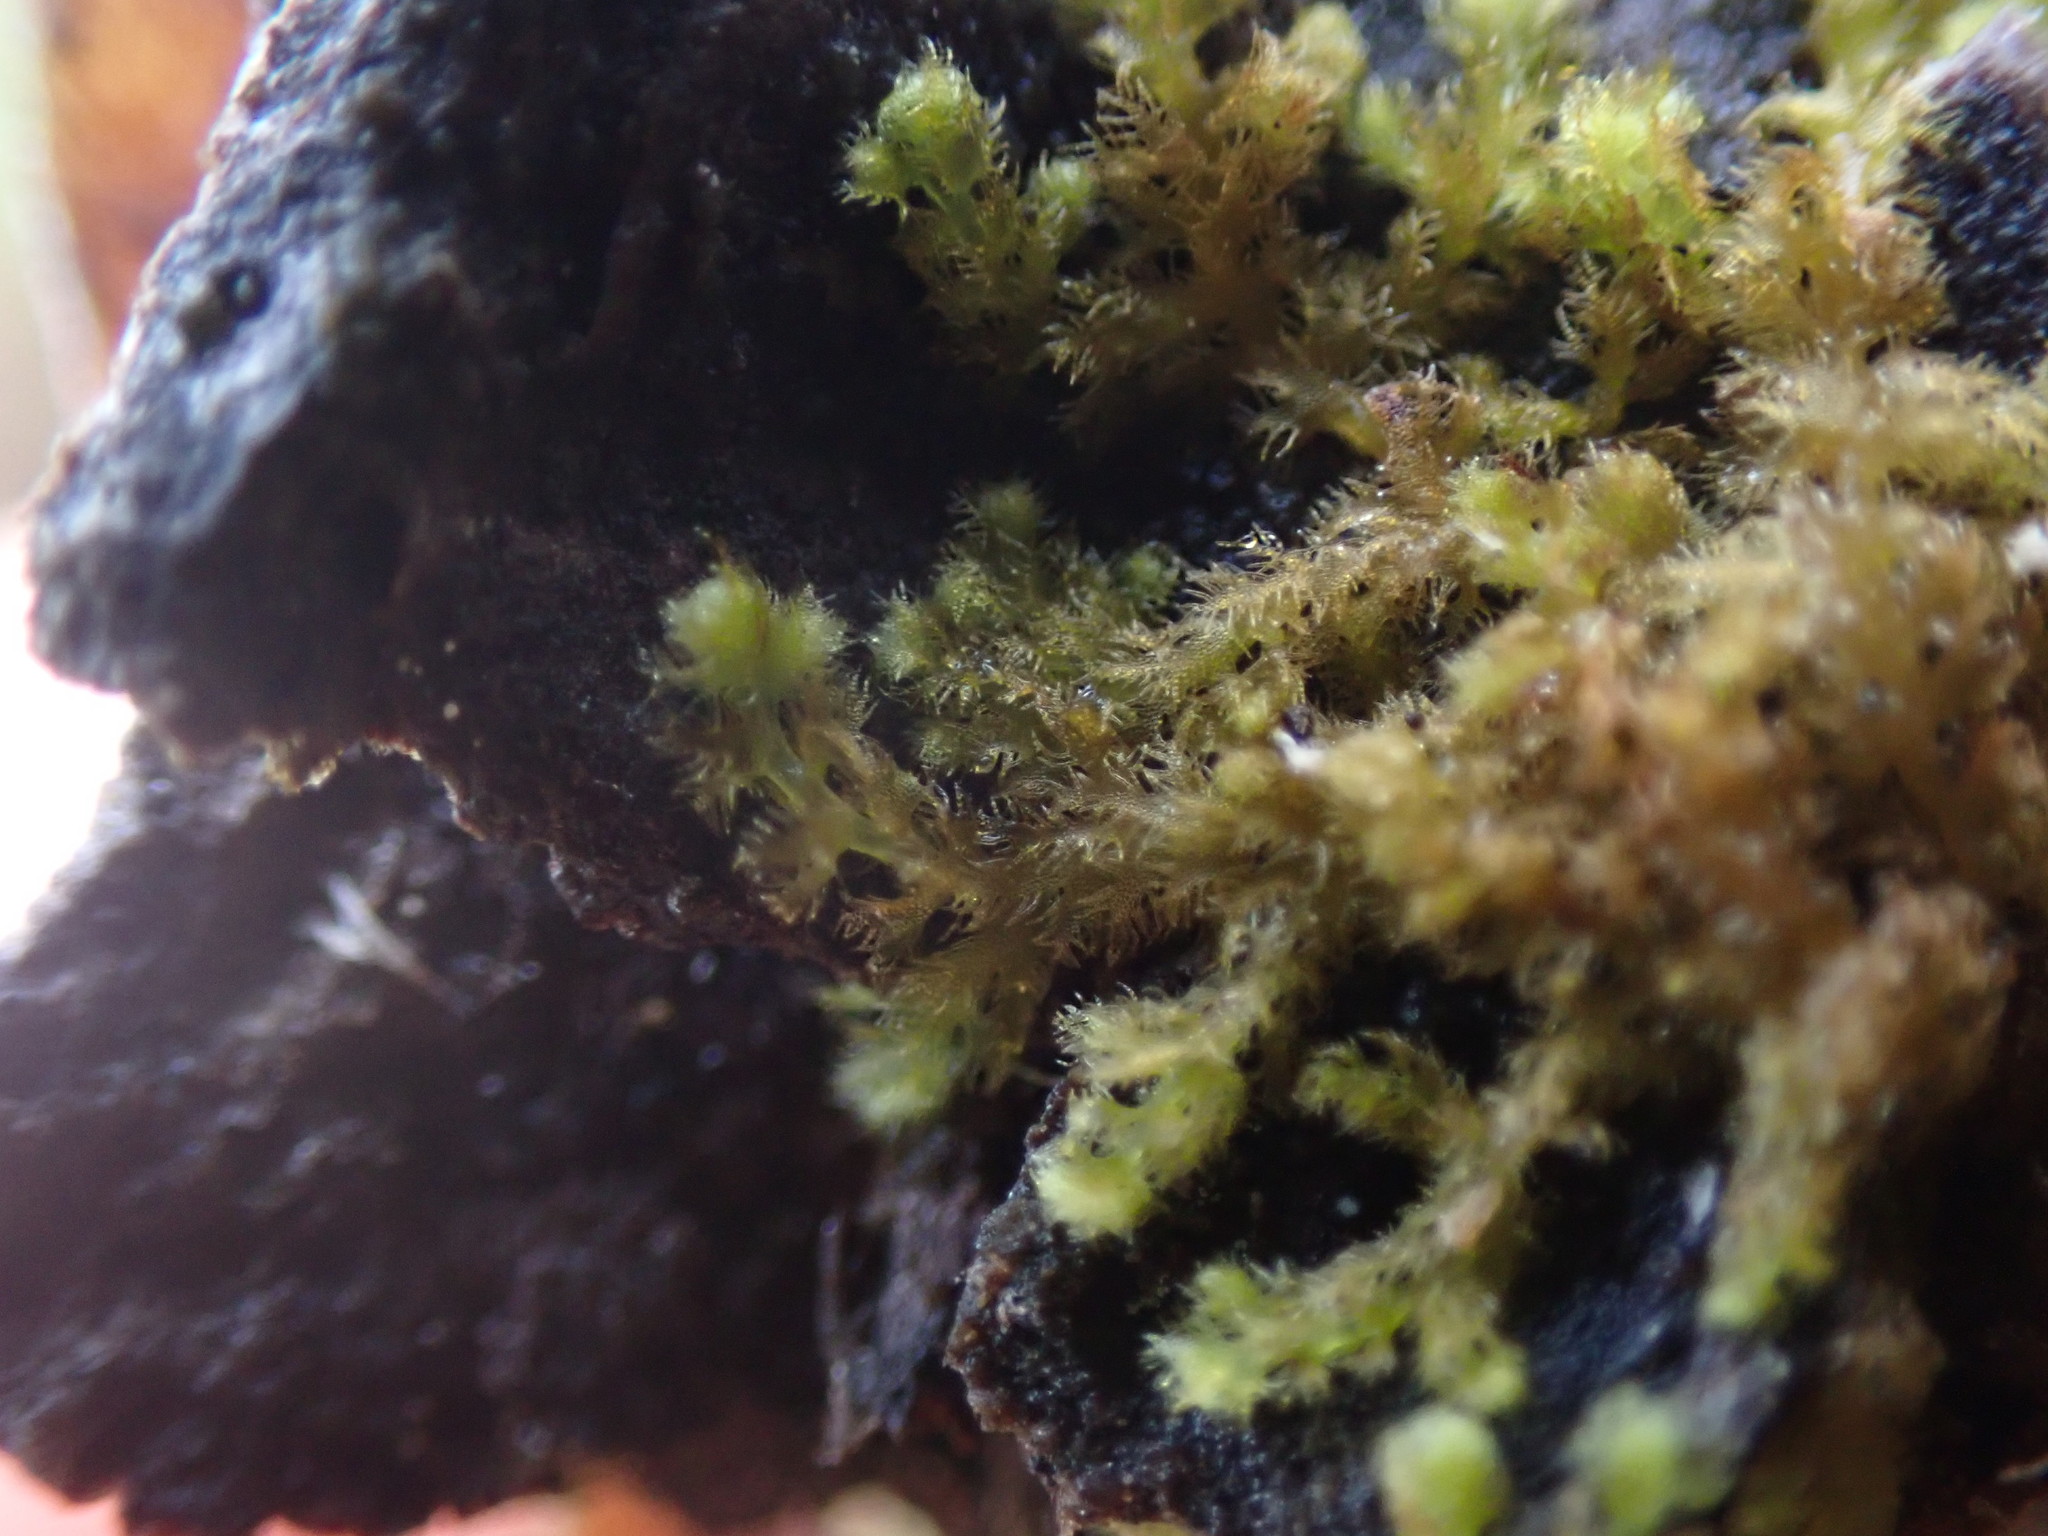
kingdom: Plantae
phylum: Marchantiophyta
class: Jungermanniopsida
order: Ptilidiales
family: Ptilidiaceae
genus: Ptilidium
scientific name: Ptilidium pulcherrimum
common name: Tree fringewort
